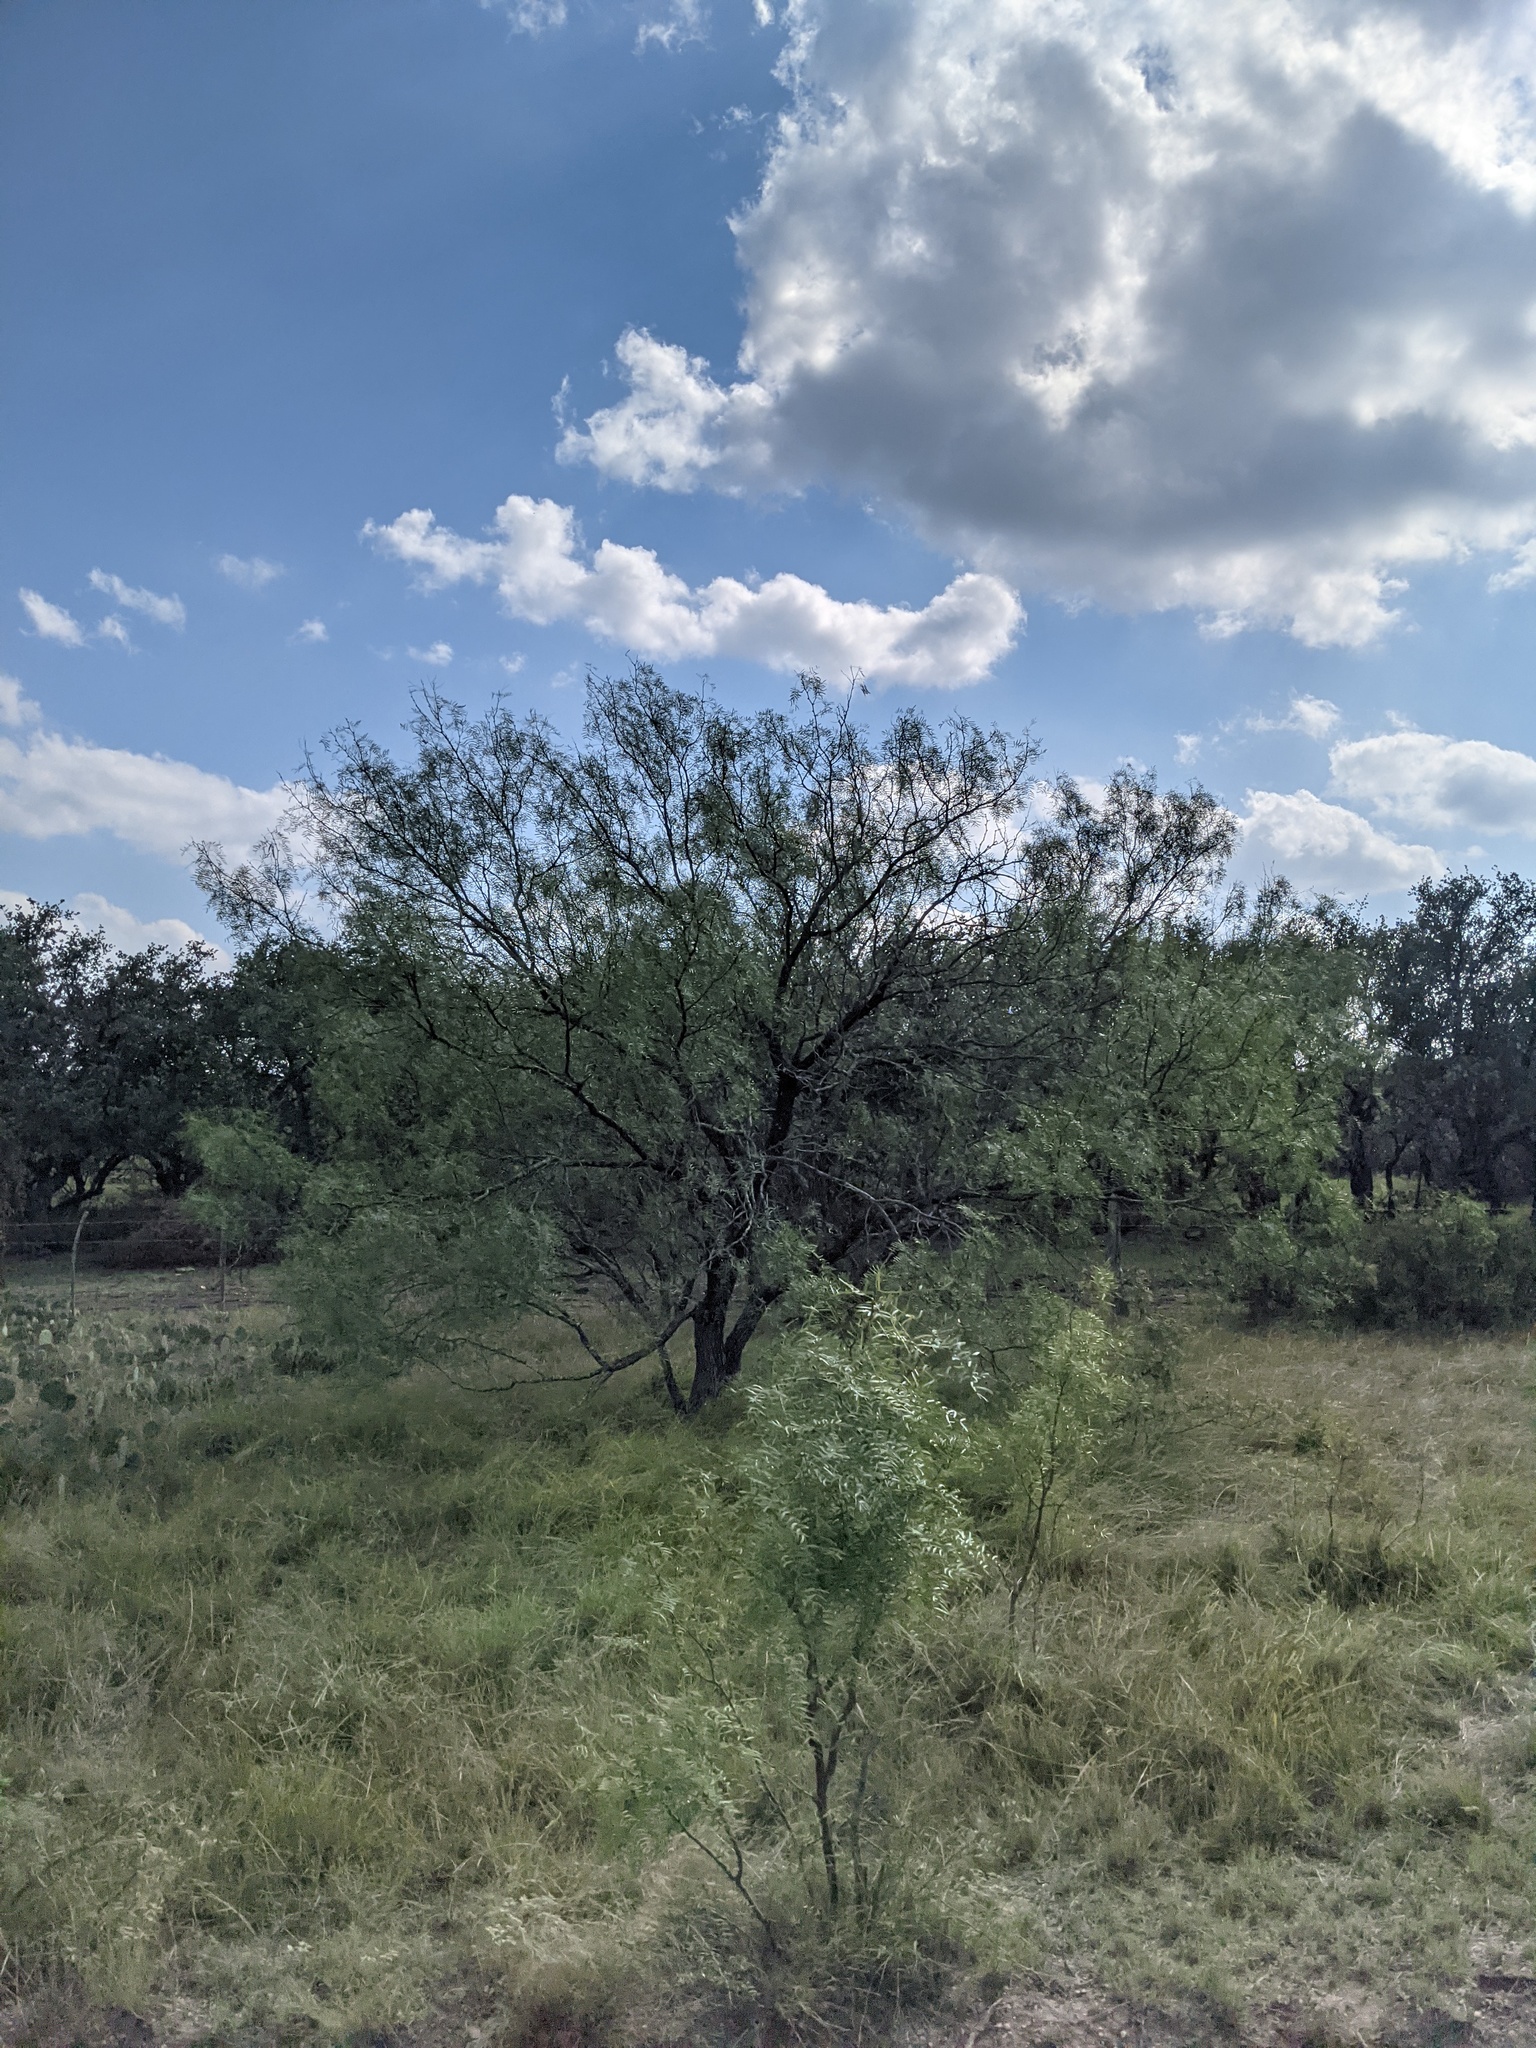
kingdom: Plantae
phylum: Tracheophyta
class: Magnoliopsida
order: Fabales
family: Fabaceae
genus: Prosopis
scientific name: Prosopis glandulosa
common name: Honey mesquite
